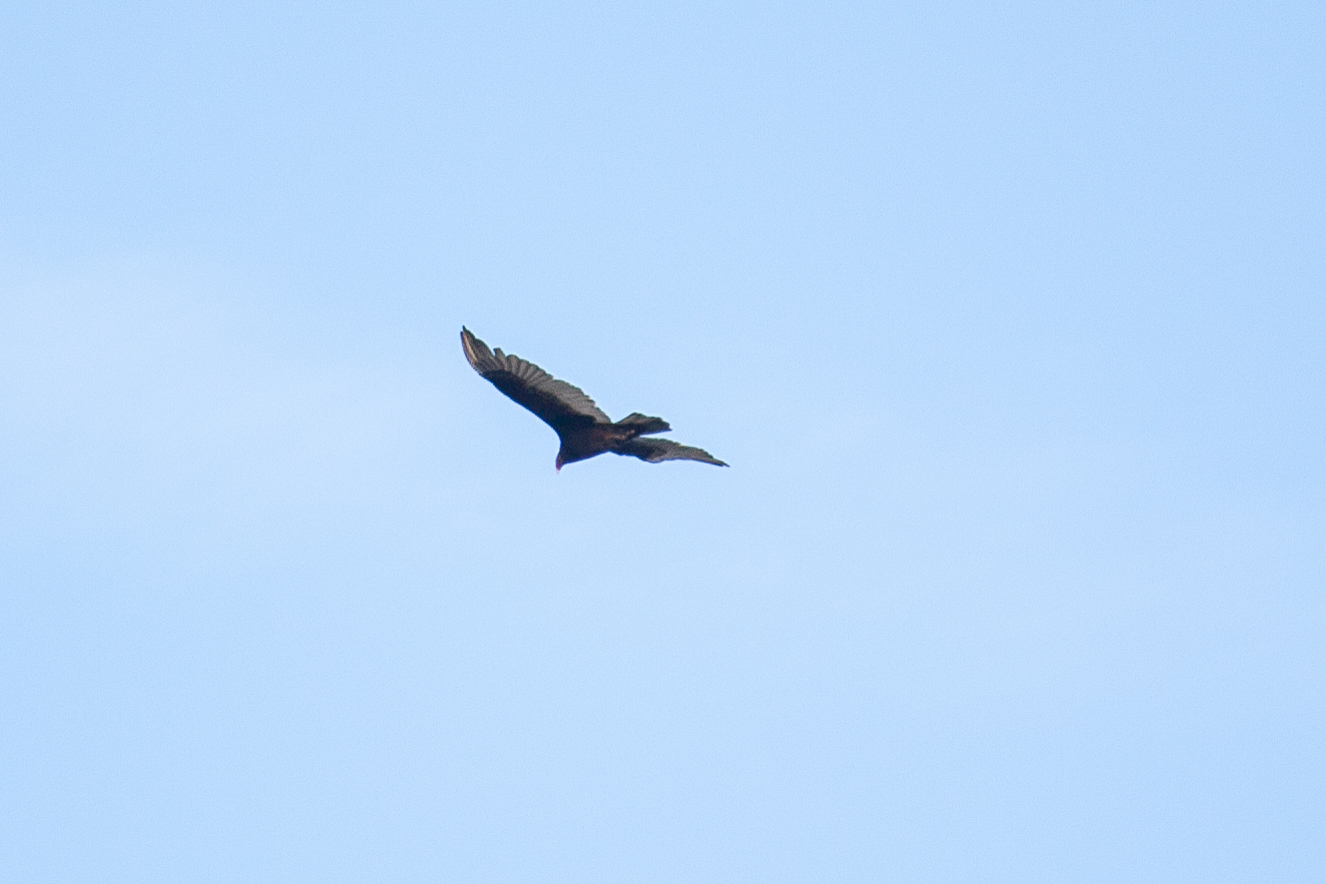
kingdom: Animalia
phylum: Chordata
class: Aves
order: Accipitriformes
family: Cathartidae
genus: Cathartes
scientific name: Cathartes aura
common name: Turkey vulture
